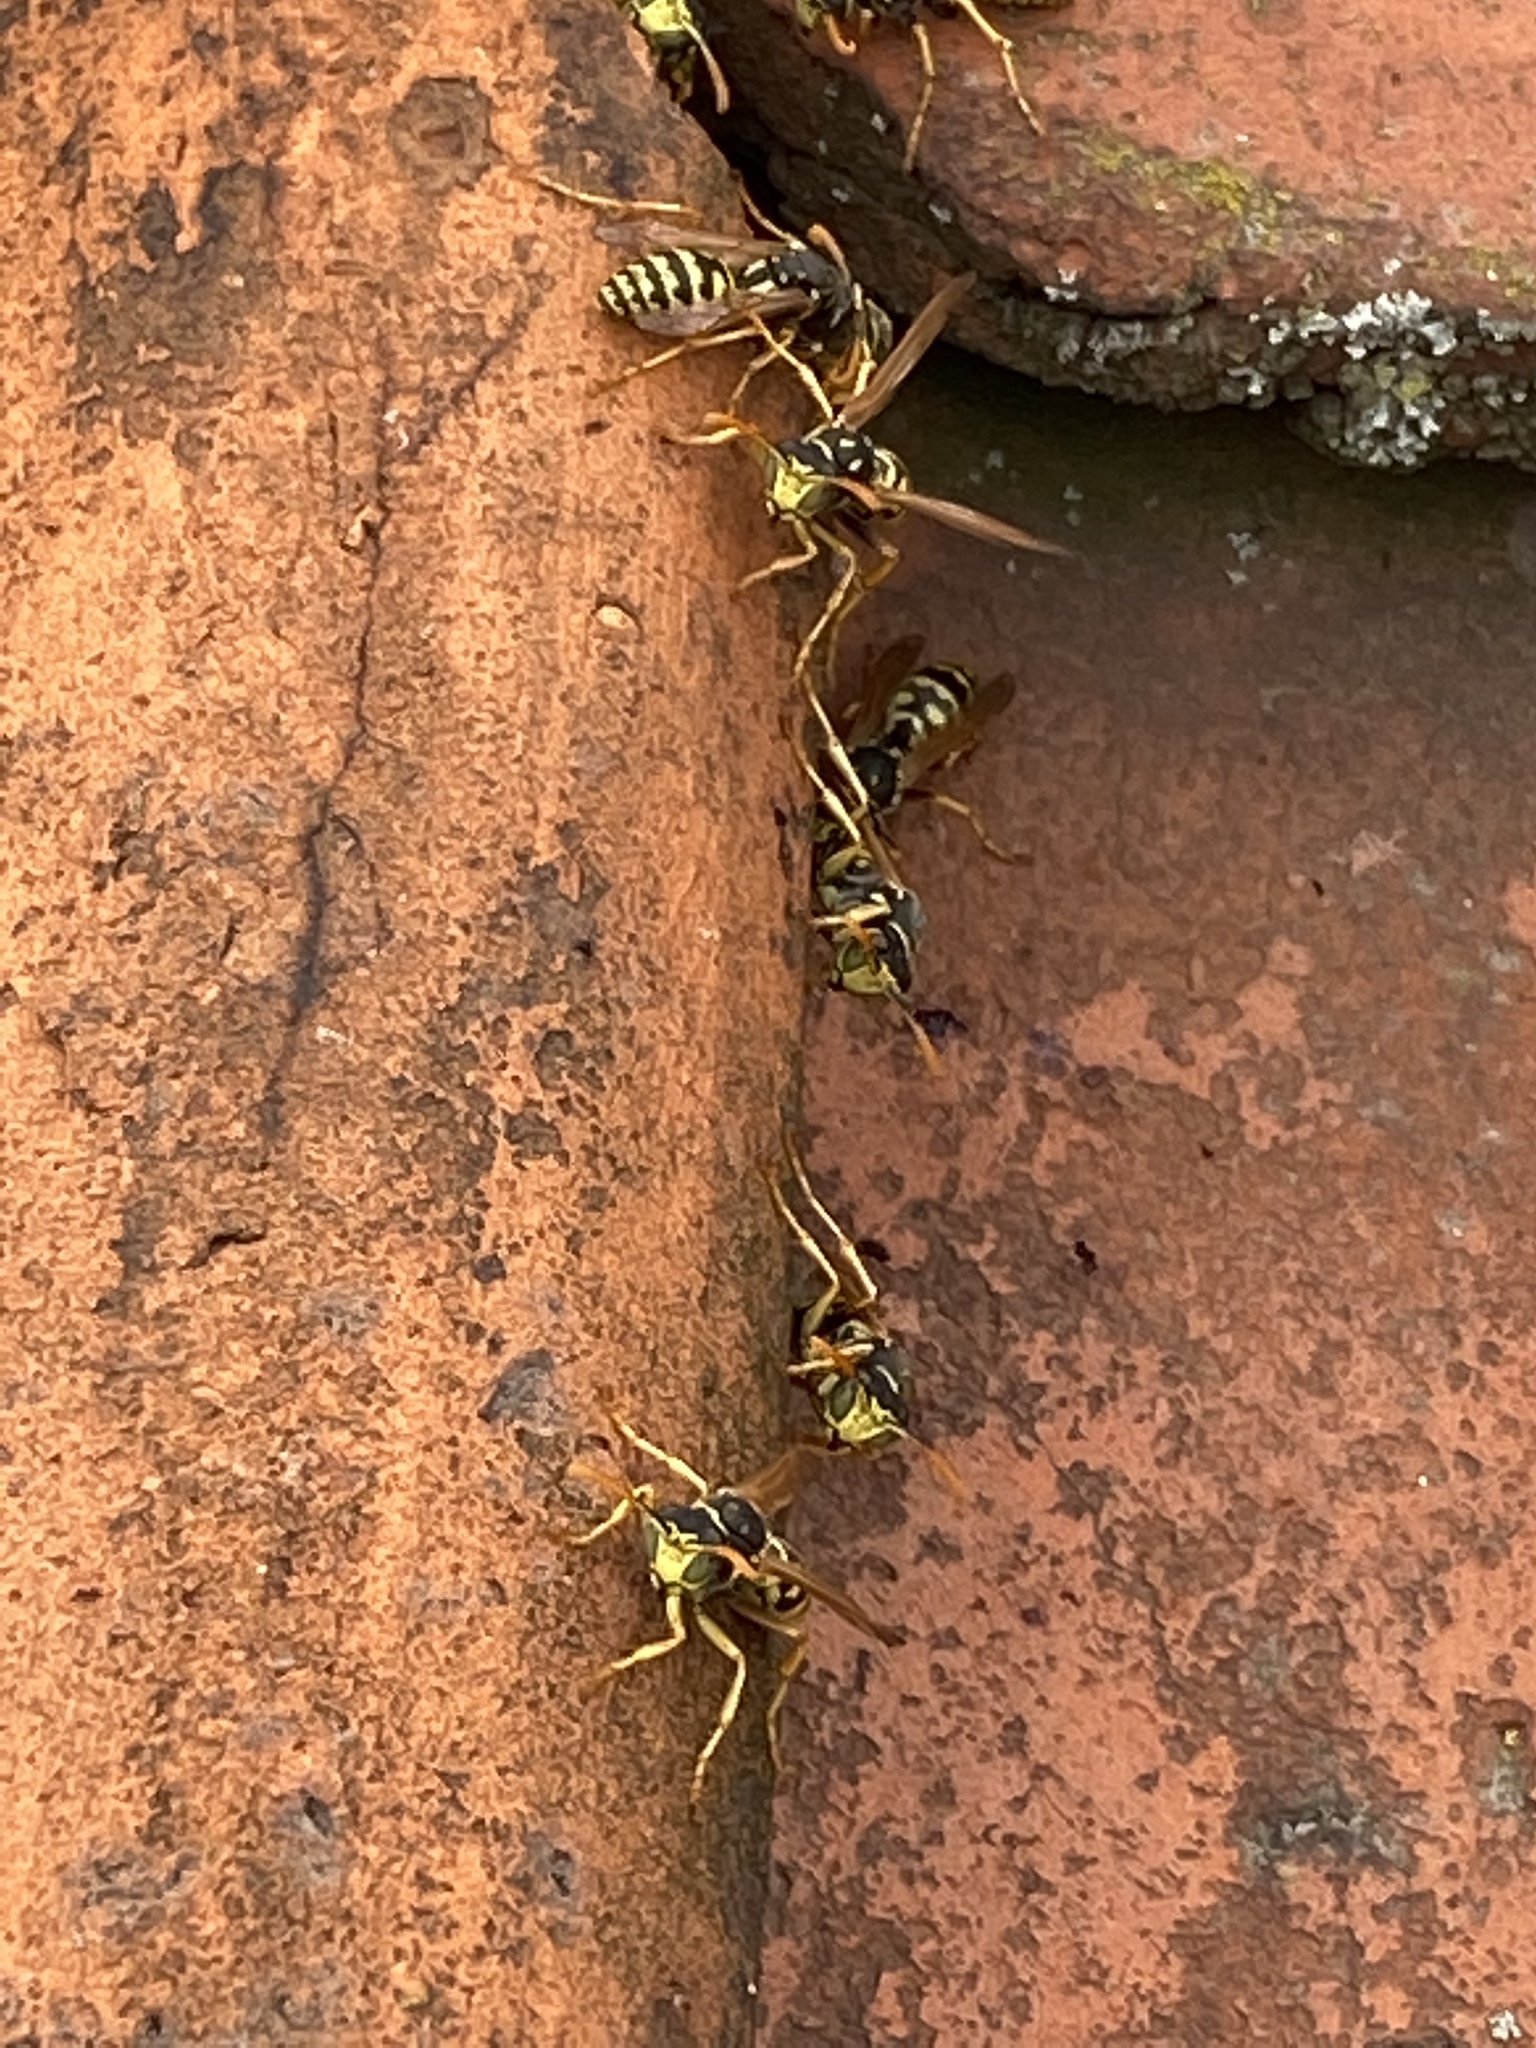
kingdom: Animalia
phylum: Arthropoda
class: Insecta
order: Hymenoptera
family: Eumenidae
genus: Polistes
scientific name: Polistes dominula
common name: Paper wasp
